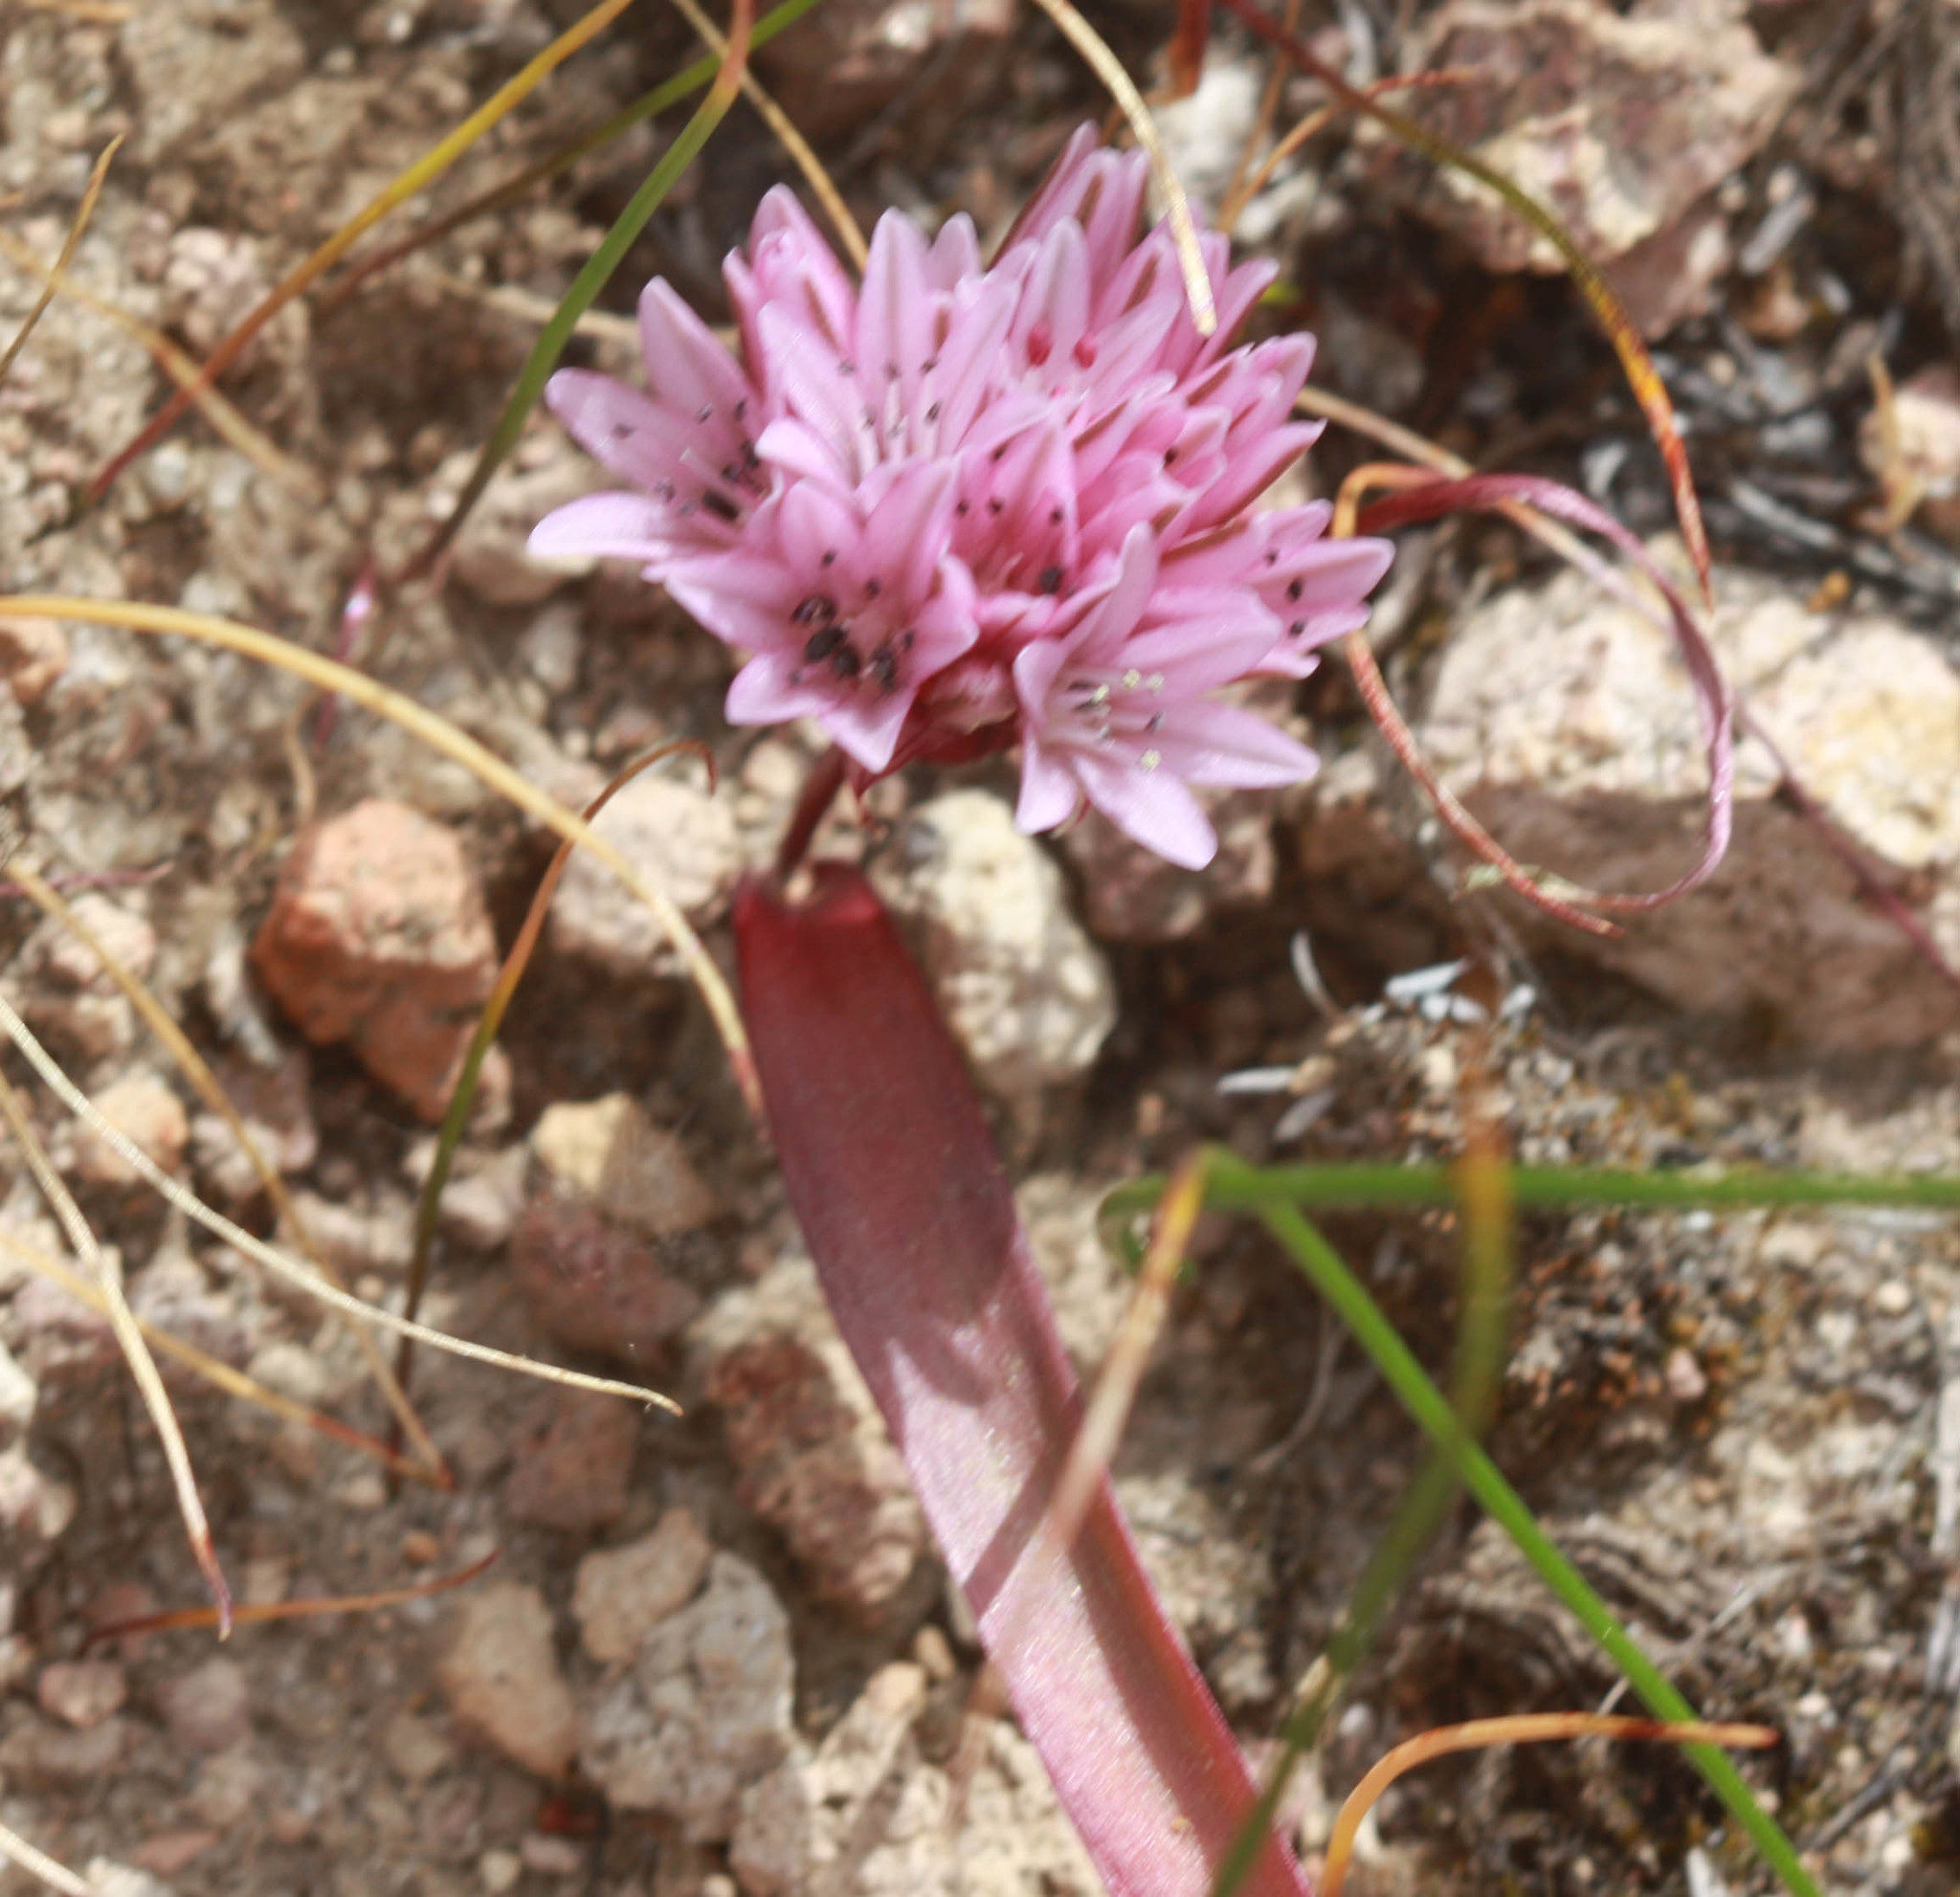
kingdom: Plantae
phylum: Tracheophyta
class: Liliopsida
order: Asparagales
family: Amaryllidaceae
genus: Allium
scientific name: Allium cratericola
